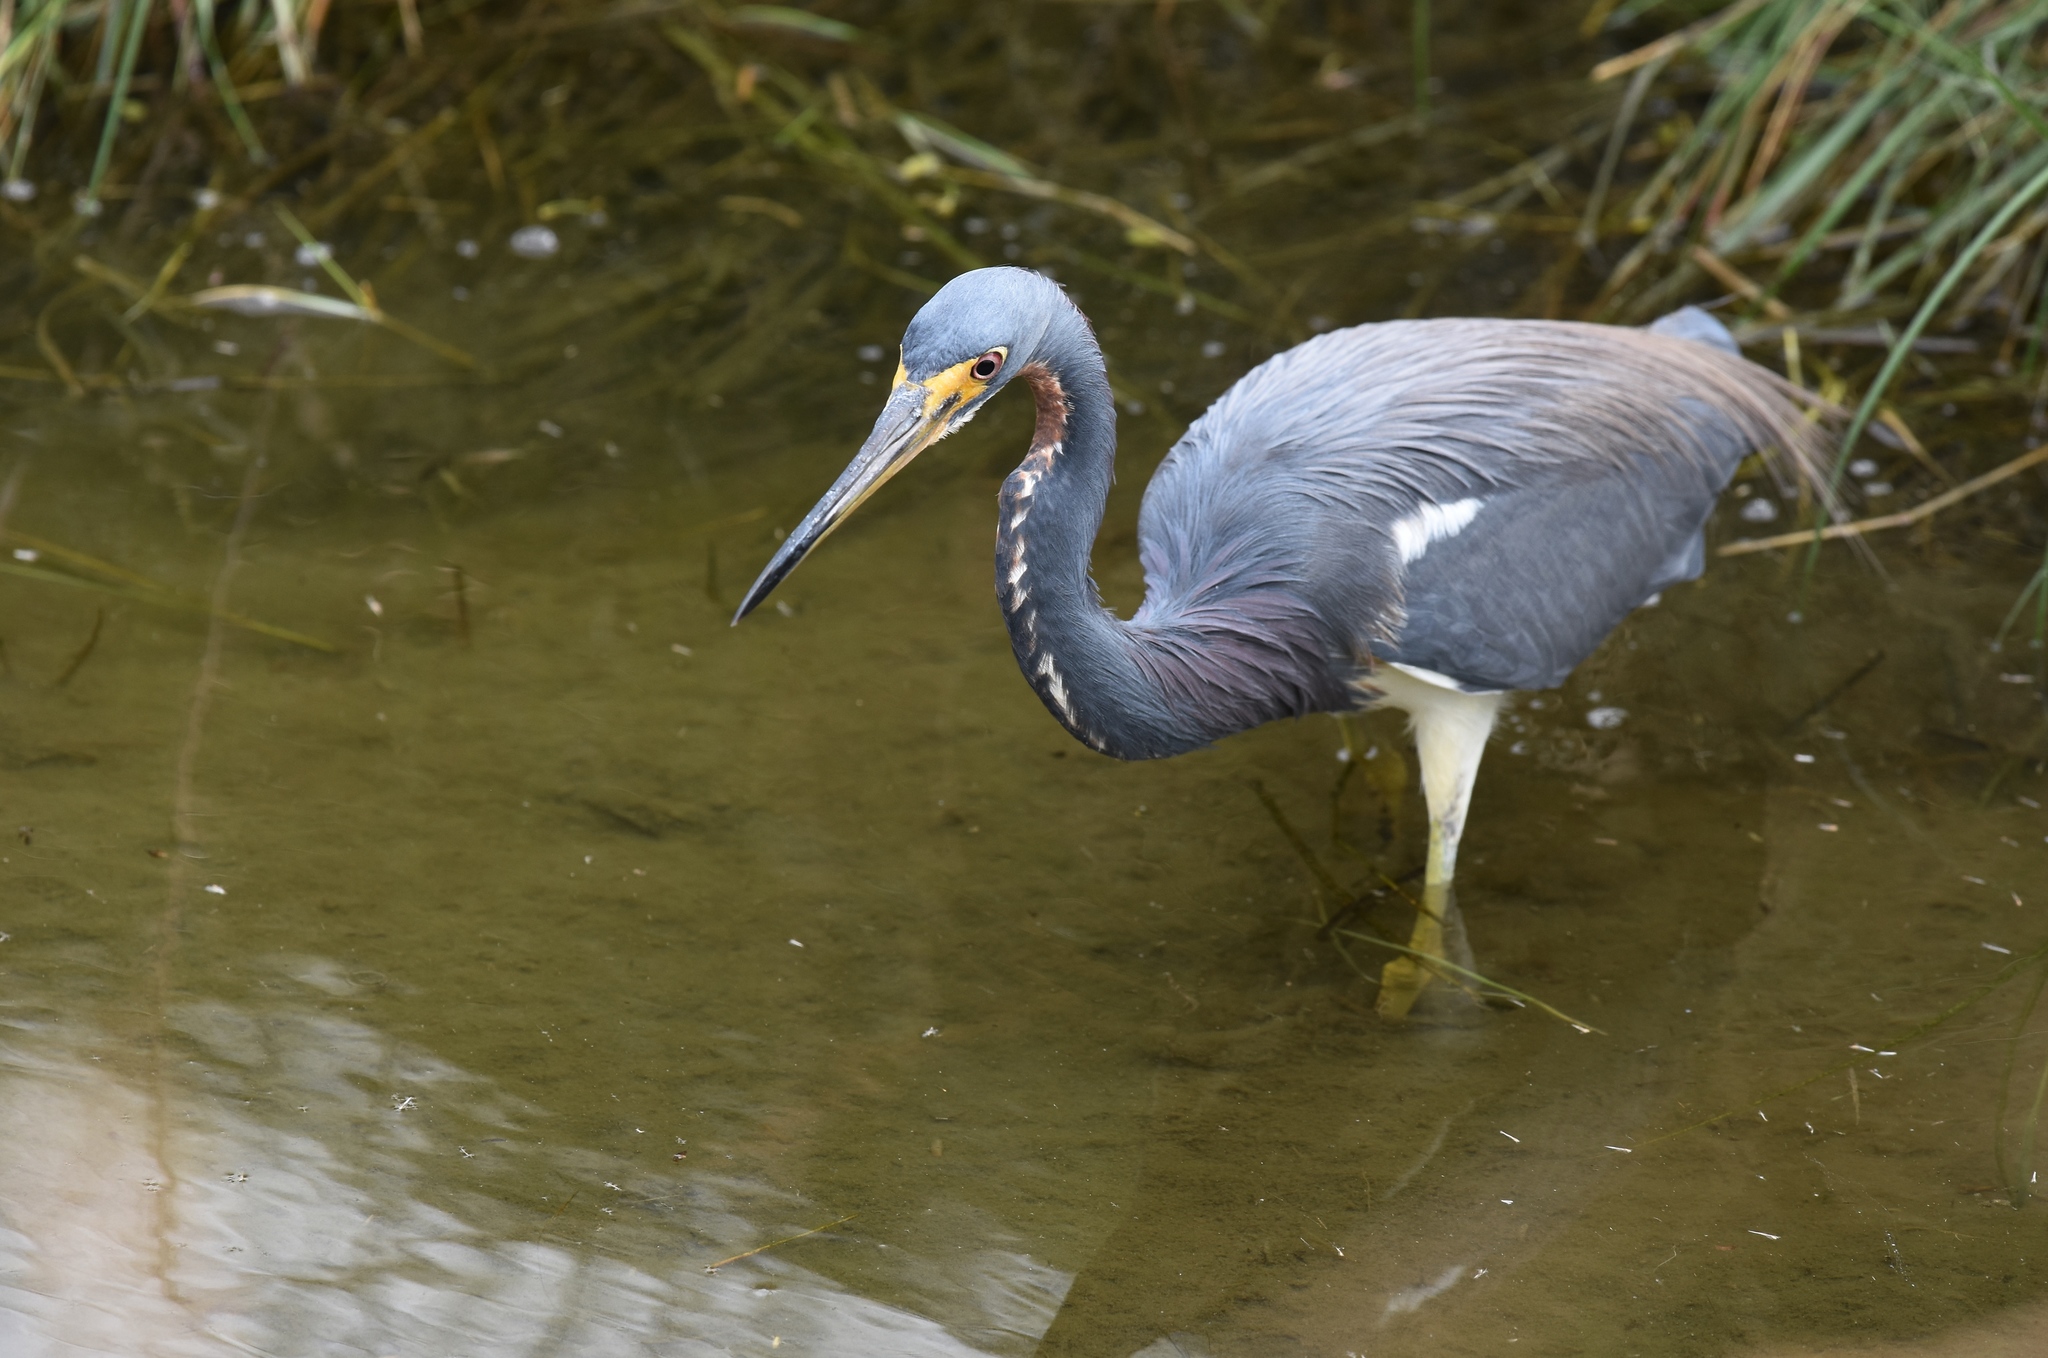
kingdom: Animalia
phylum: Chordata
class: Aves
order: Pelecaniformes
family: Ardeidae
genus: Egretta
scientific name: Egretta tricolor
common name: Tricolored heron
